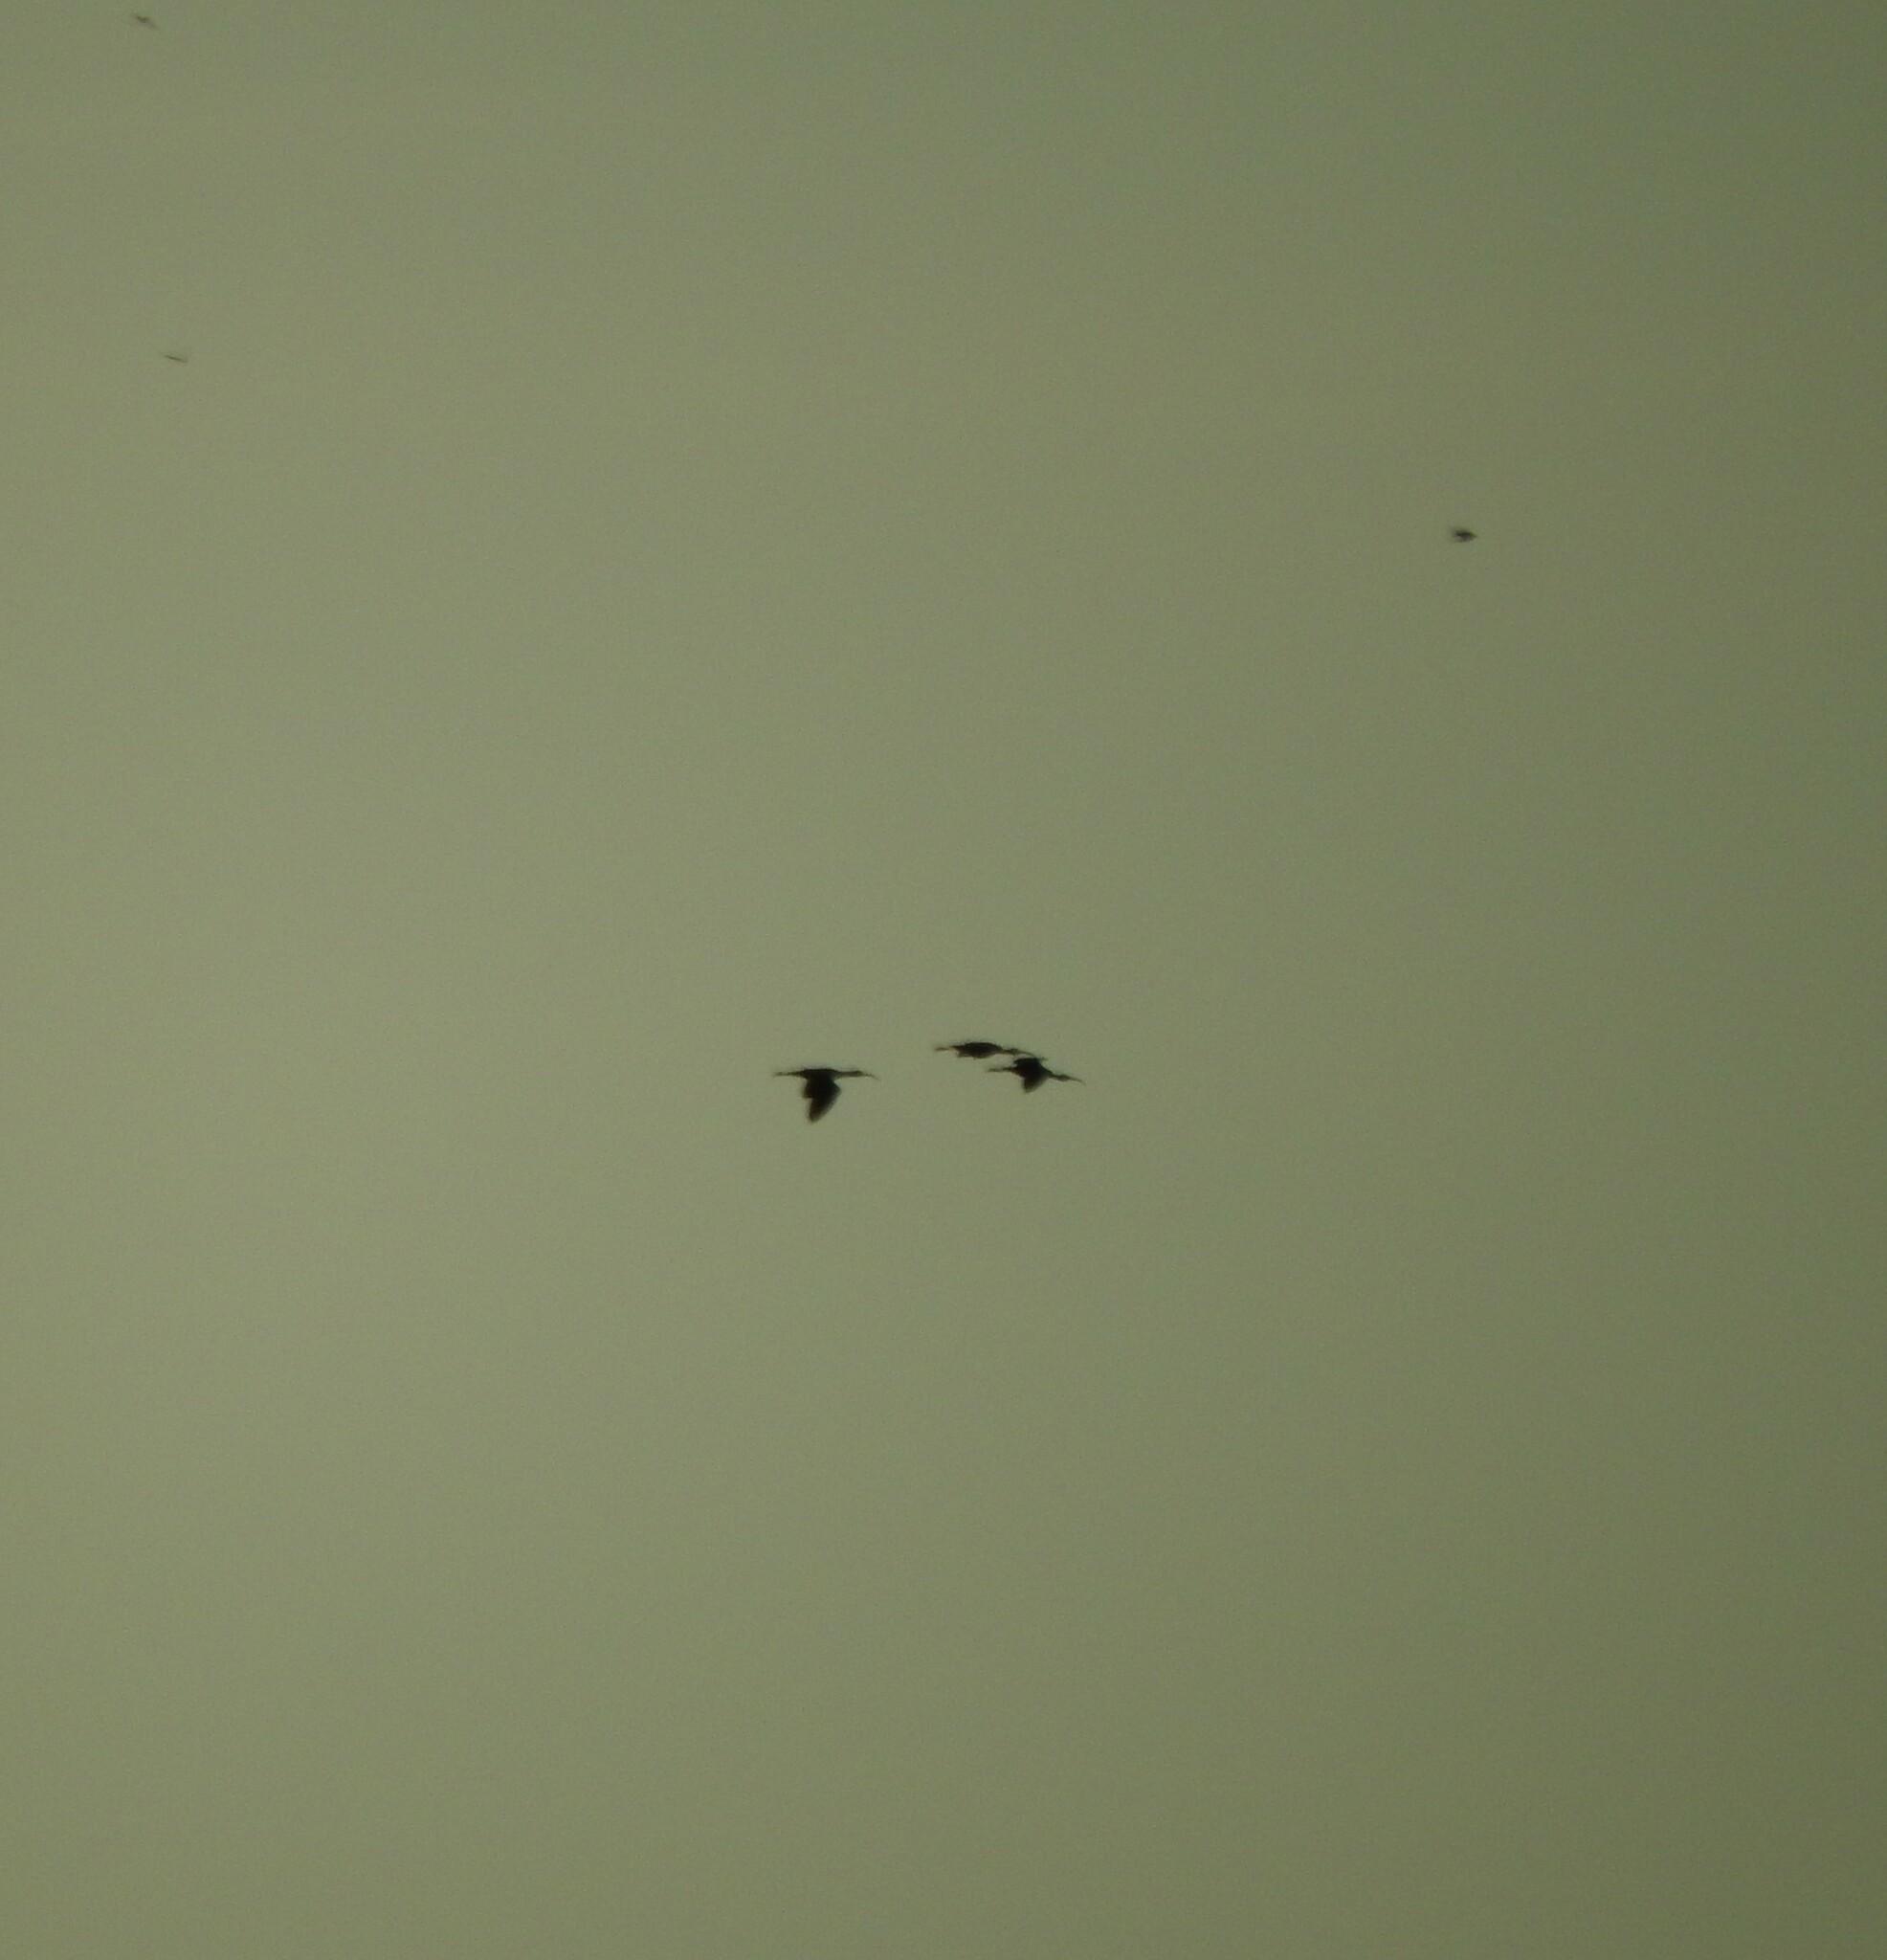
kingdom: Animalia
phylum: Chordata
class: Aves
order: Pelecaniformes
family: Threskiornithidae
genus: Plegadis
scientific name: Plegadis chihi
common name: White-faced ibis
